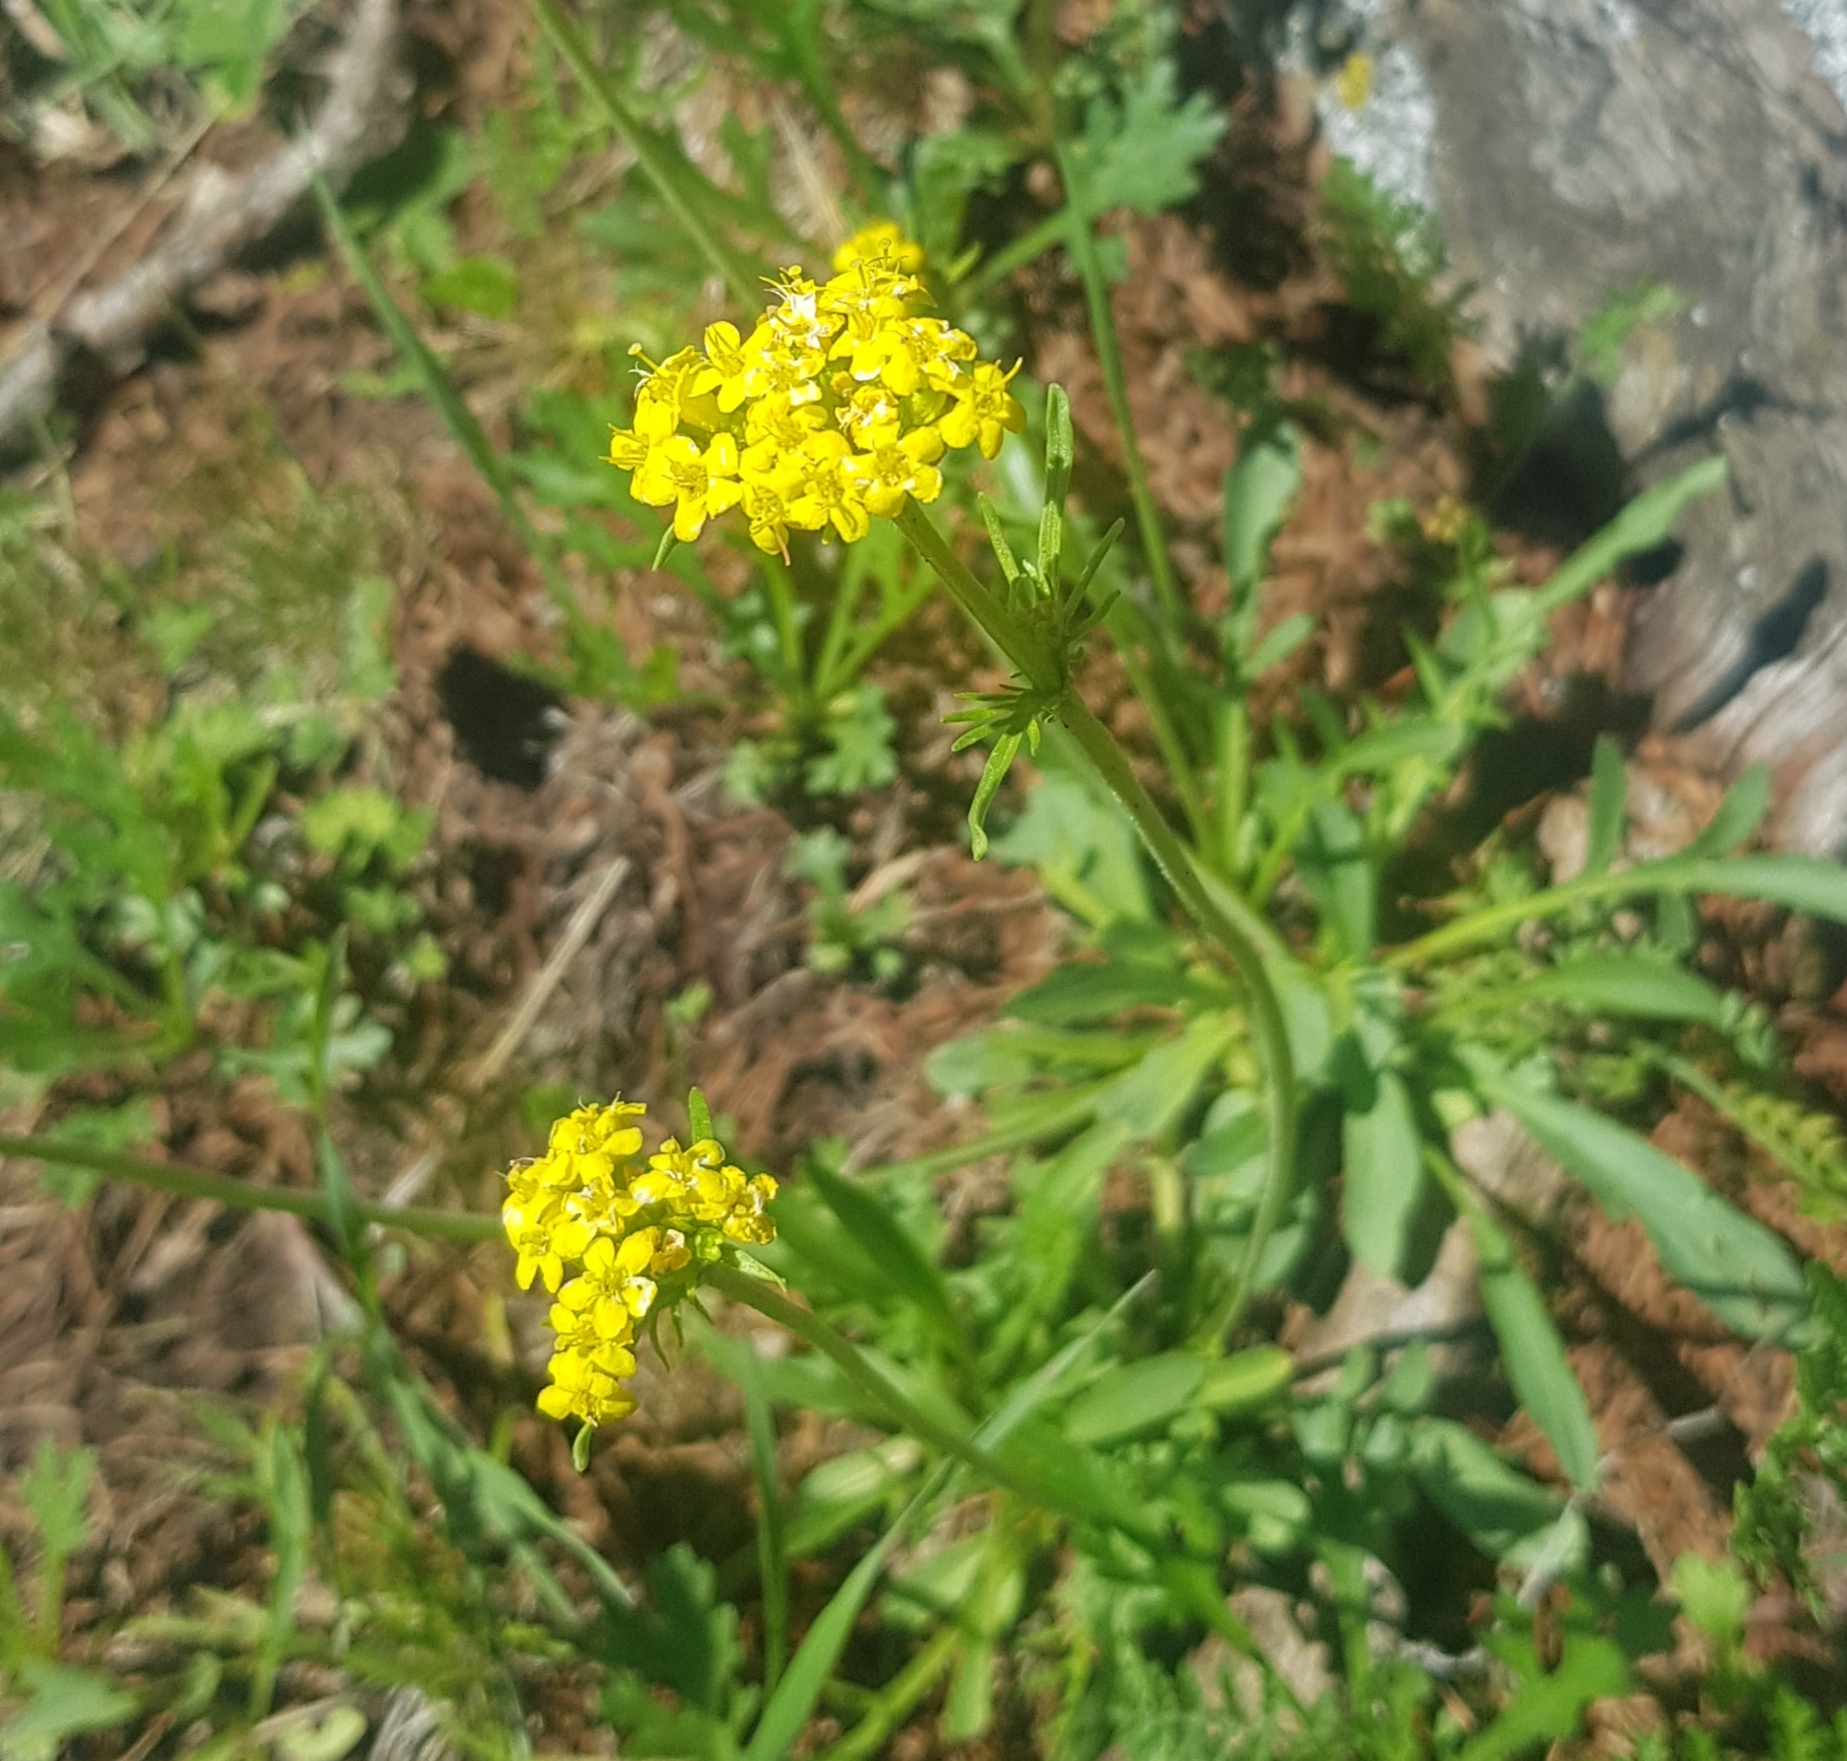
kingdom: Plantae
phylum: Tracheophyta
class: Magnoliopsida
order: Dipsacales
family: Caprifoliaceae
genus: Patrinia
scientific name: Patrinia sibirica
